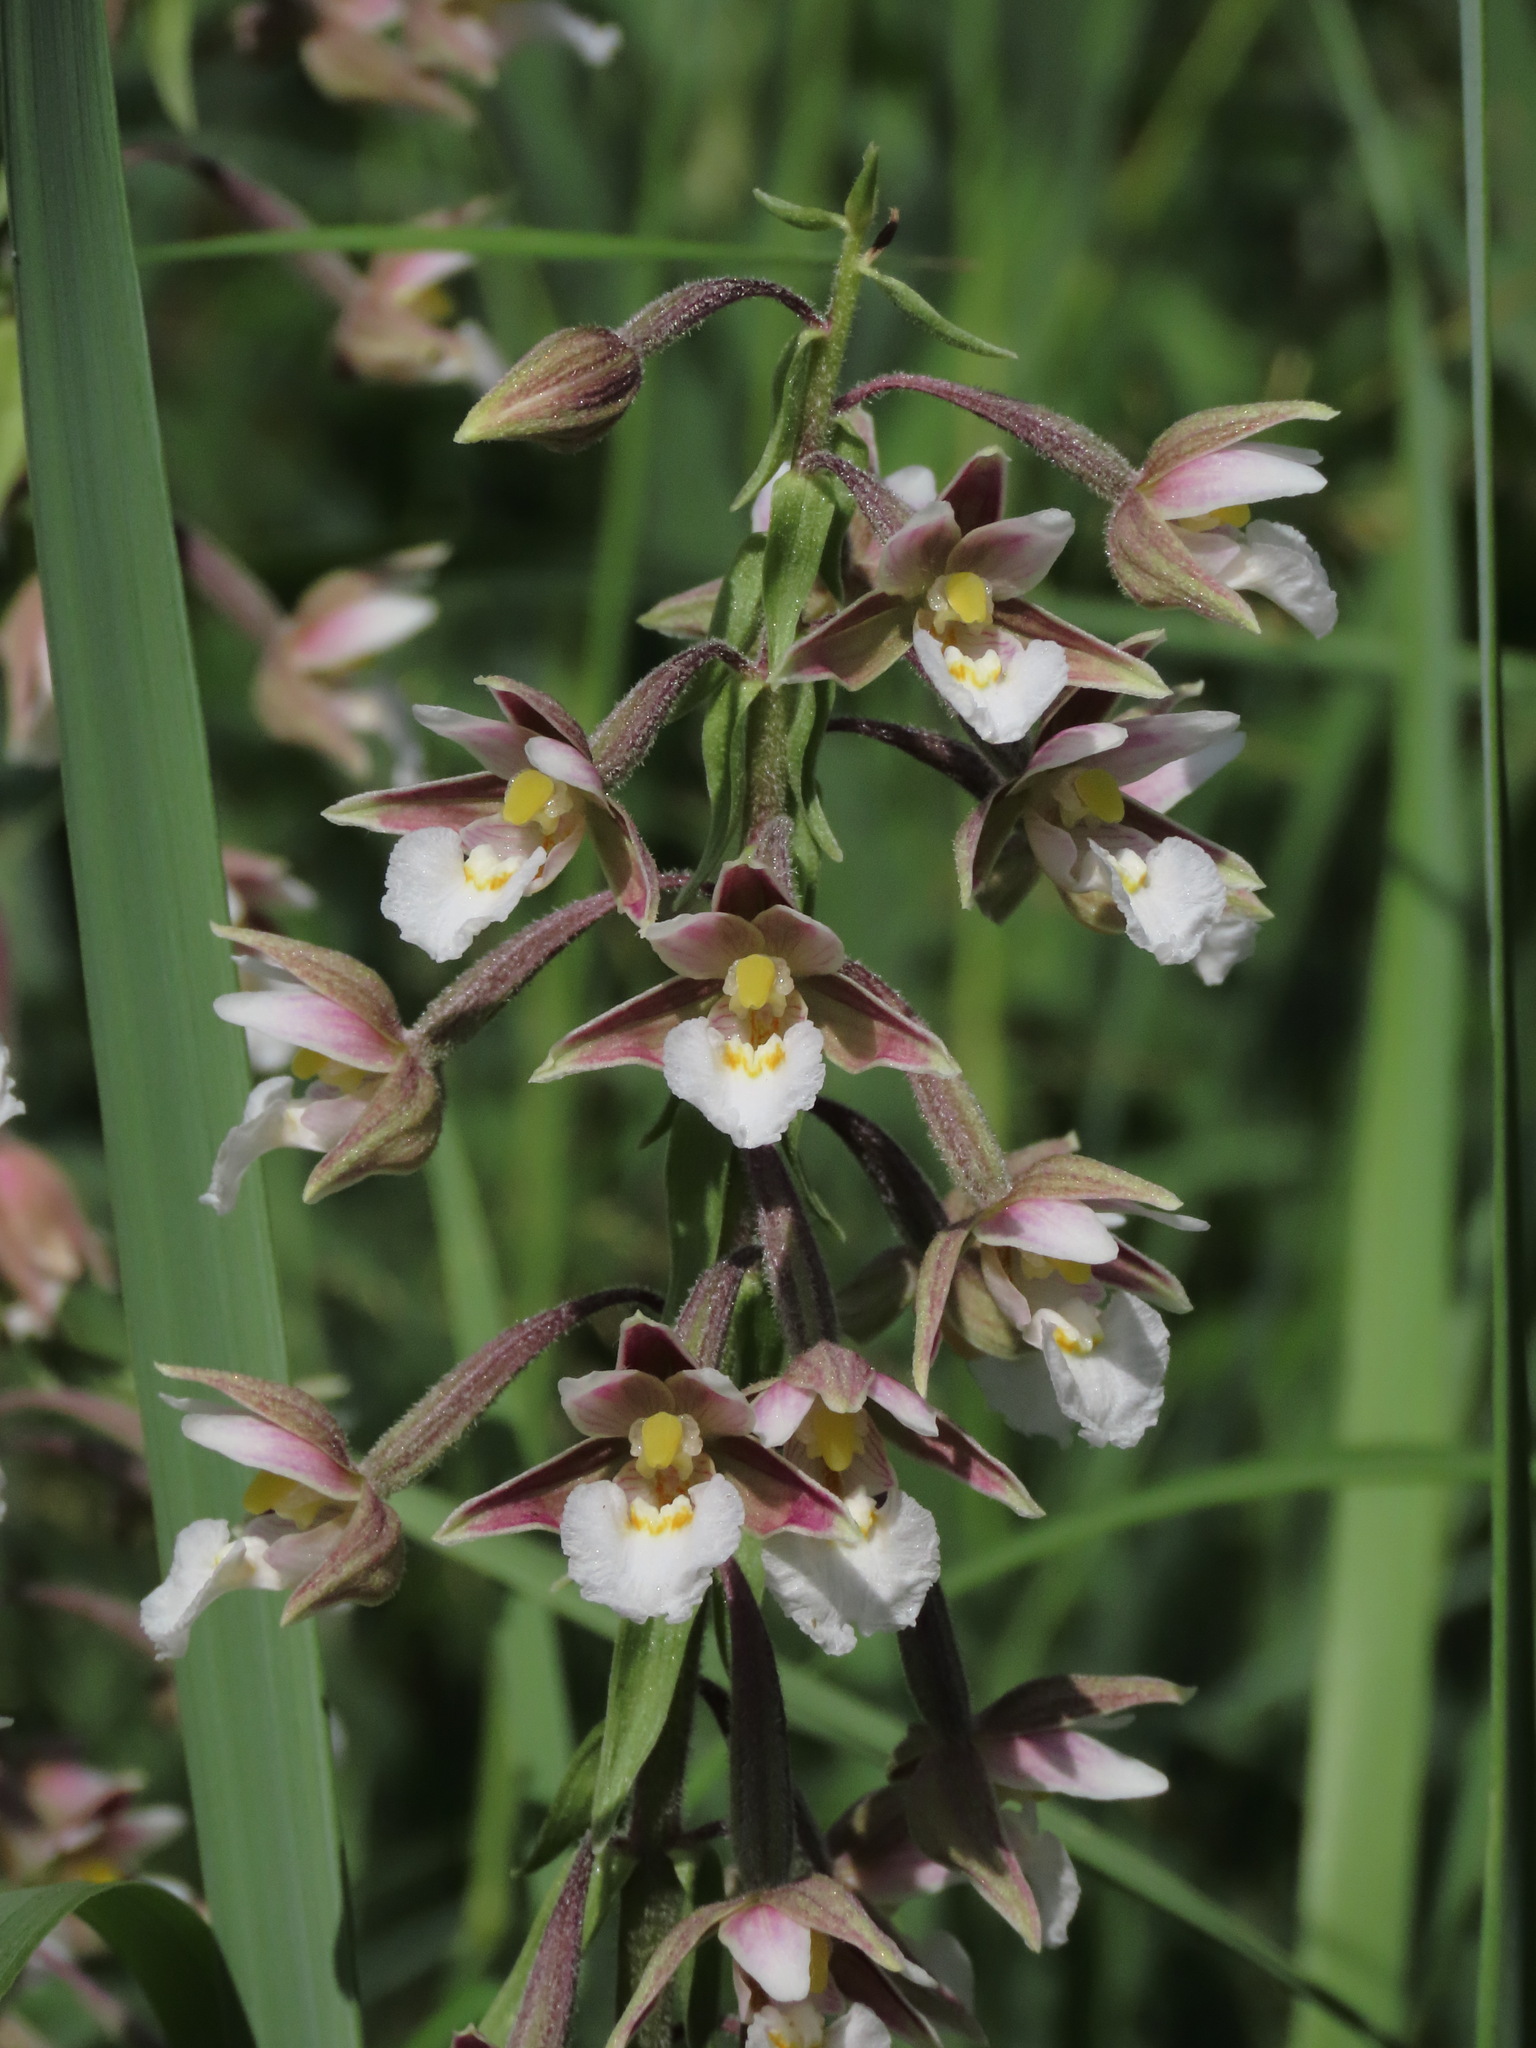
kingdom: Plantae
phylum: Tracheophyta
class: Liliopsida
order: Asparagales
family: Orchidaceae
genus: Epipactis
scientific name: Epipactis palustris
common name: Marsh helleborine
